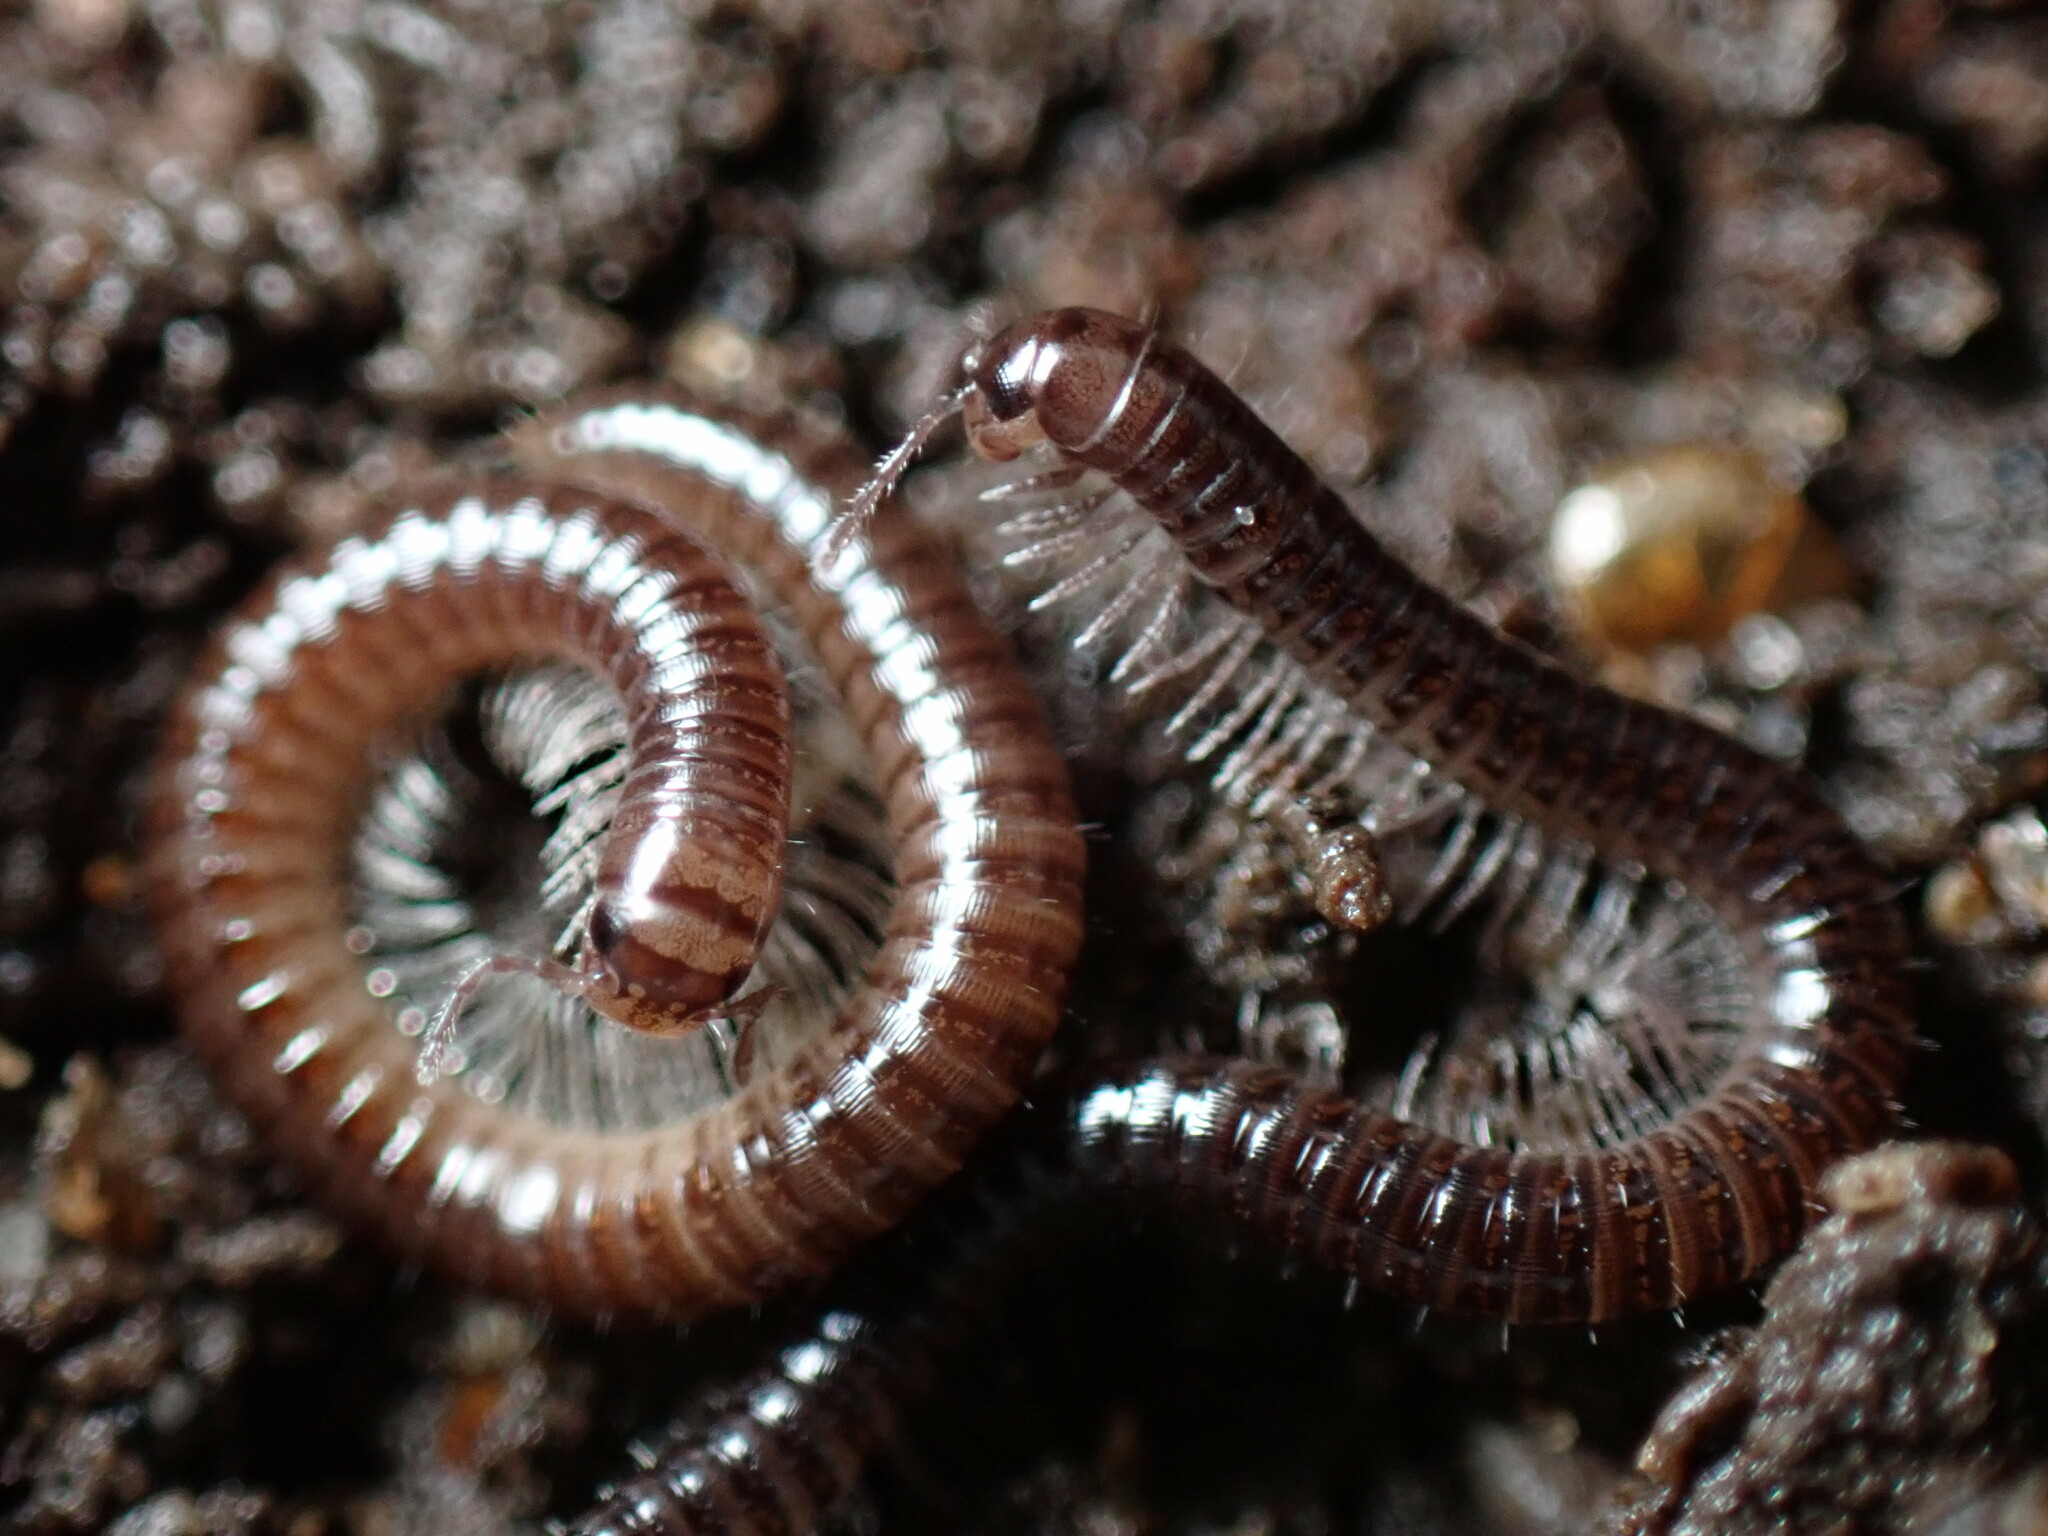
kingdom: Animalia
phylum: Arthropoda
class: Diplopoda
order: Julida
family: Julidae
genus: Ophyiulus
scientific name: Ophyiulus pilosus
